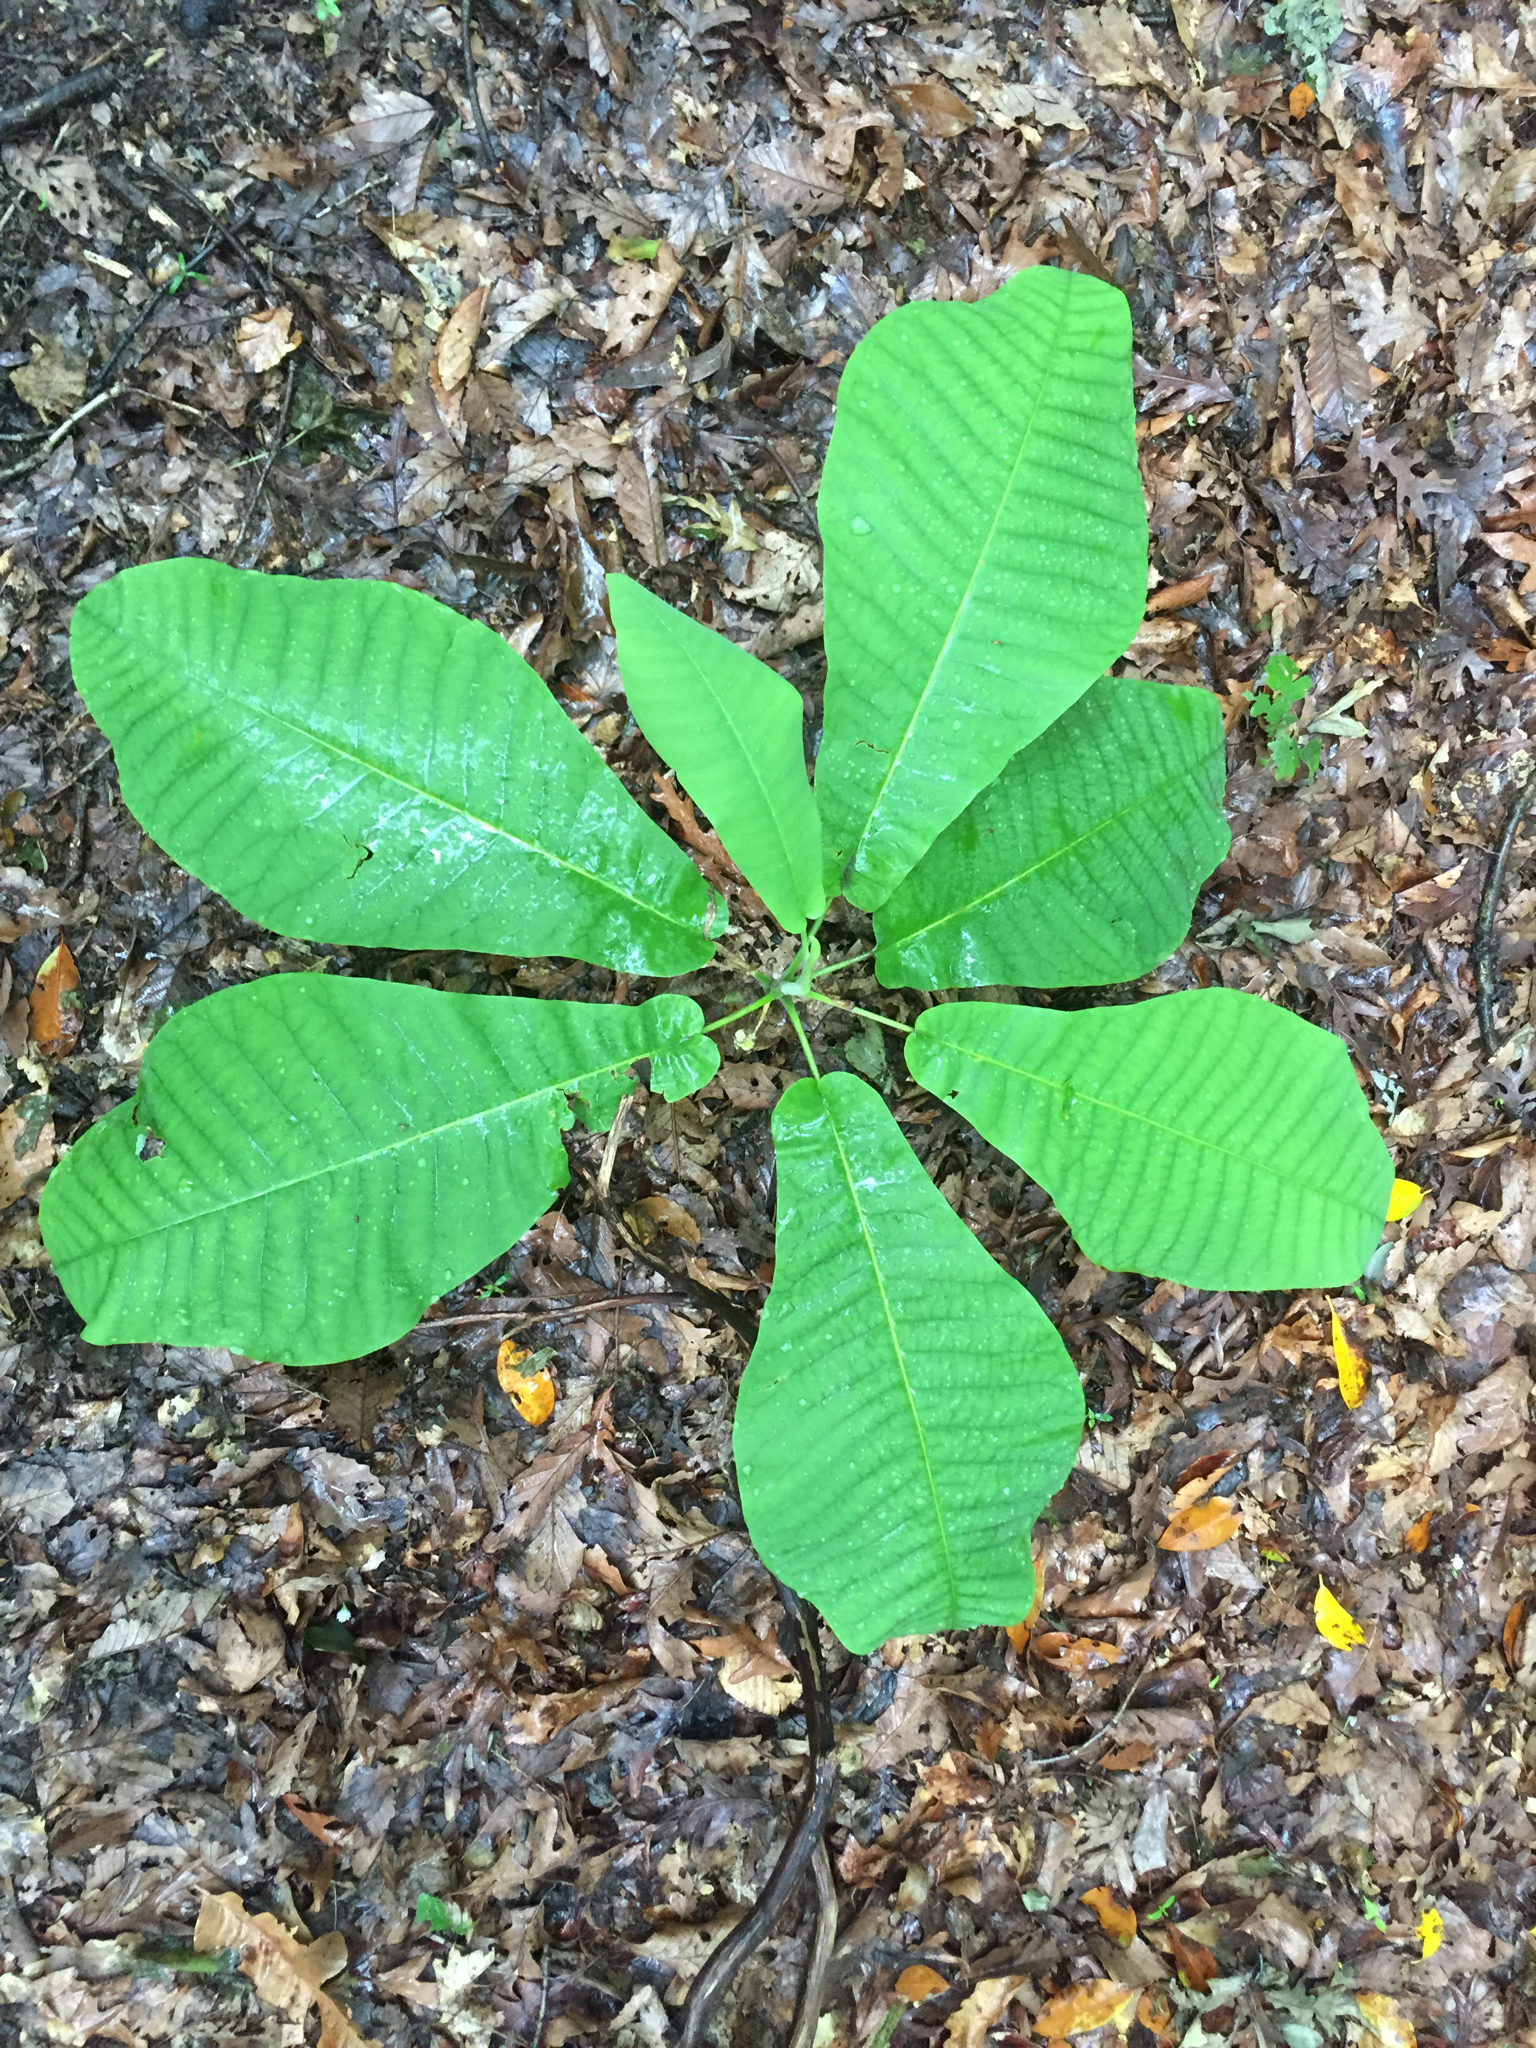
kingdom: Plantae
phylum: Tracheophyta
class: Magnoliopsida
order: Magnoliales
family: Magnoliaceae
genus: Magnolia
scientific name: Magnolia macrophylla
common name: Big-leaf magnolia
